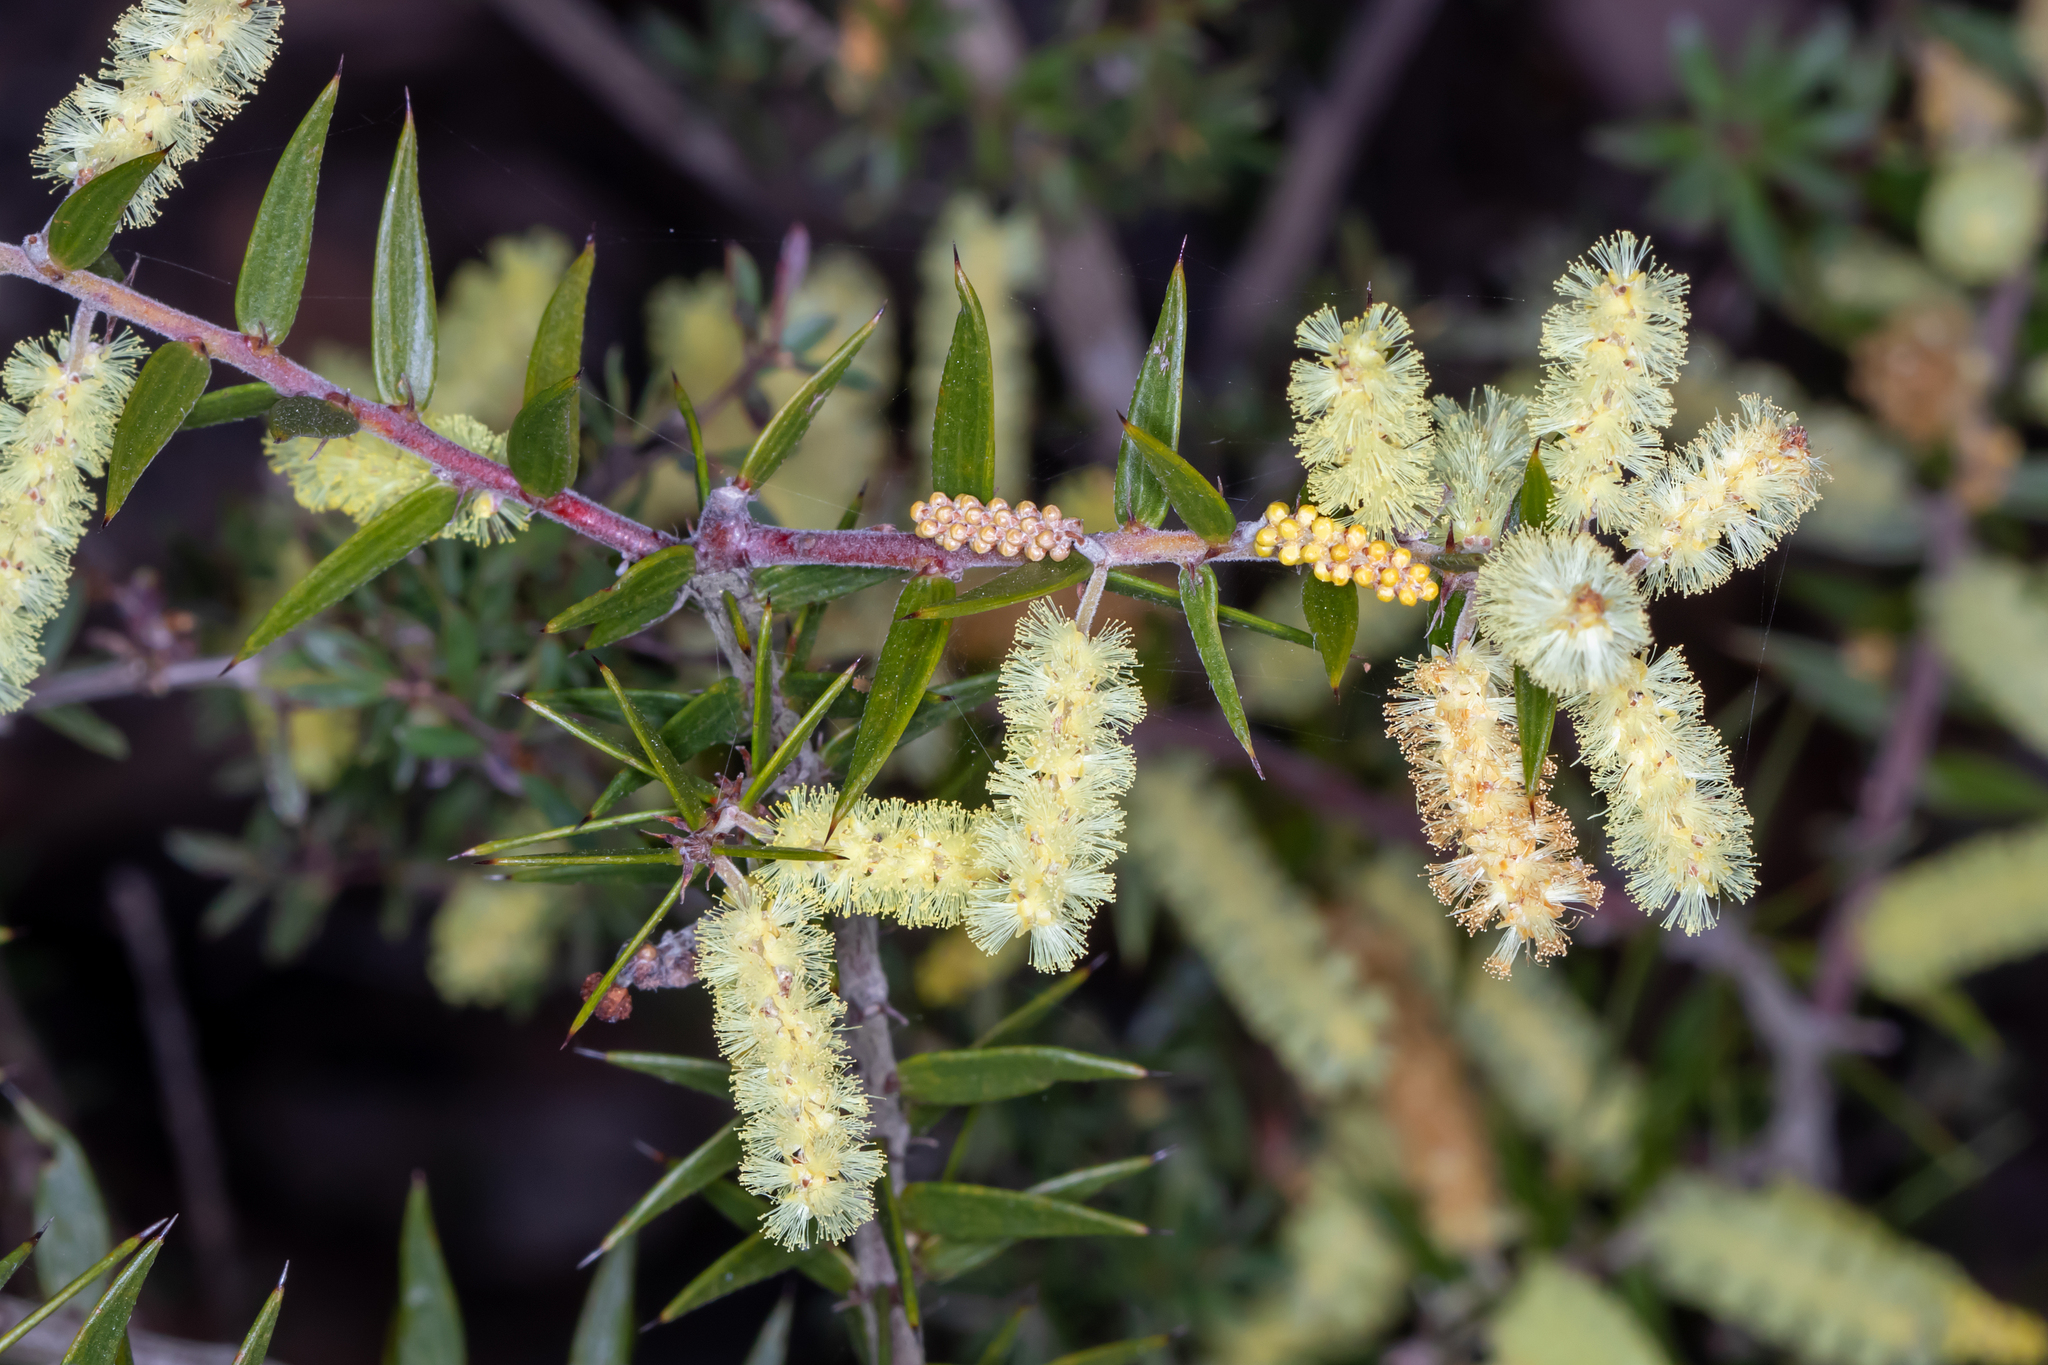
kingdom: Plantae
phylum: Tracheophyta
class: Magnoliopsida
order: Fabales
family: Fabaceae
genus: Acacia
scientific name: Acacia oxycedrus
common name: Spike wattle
